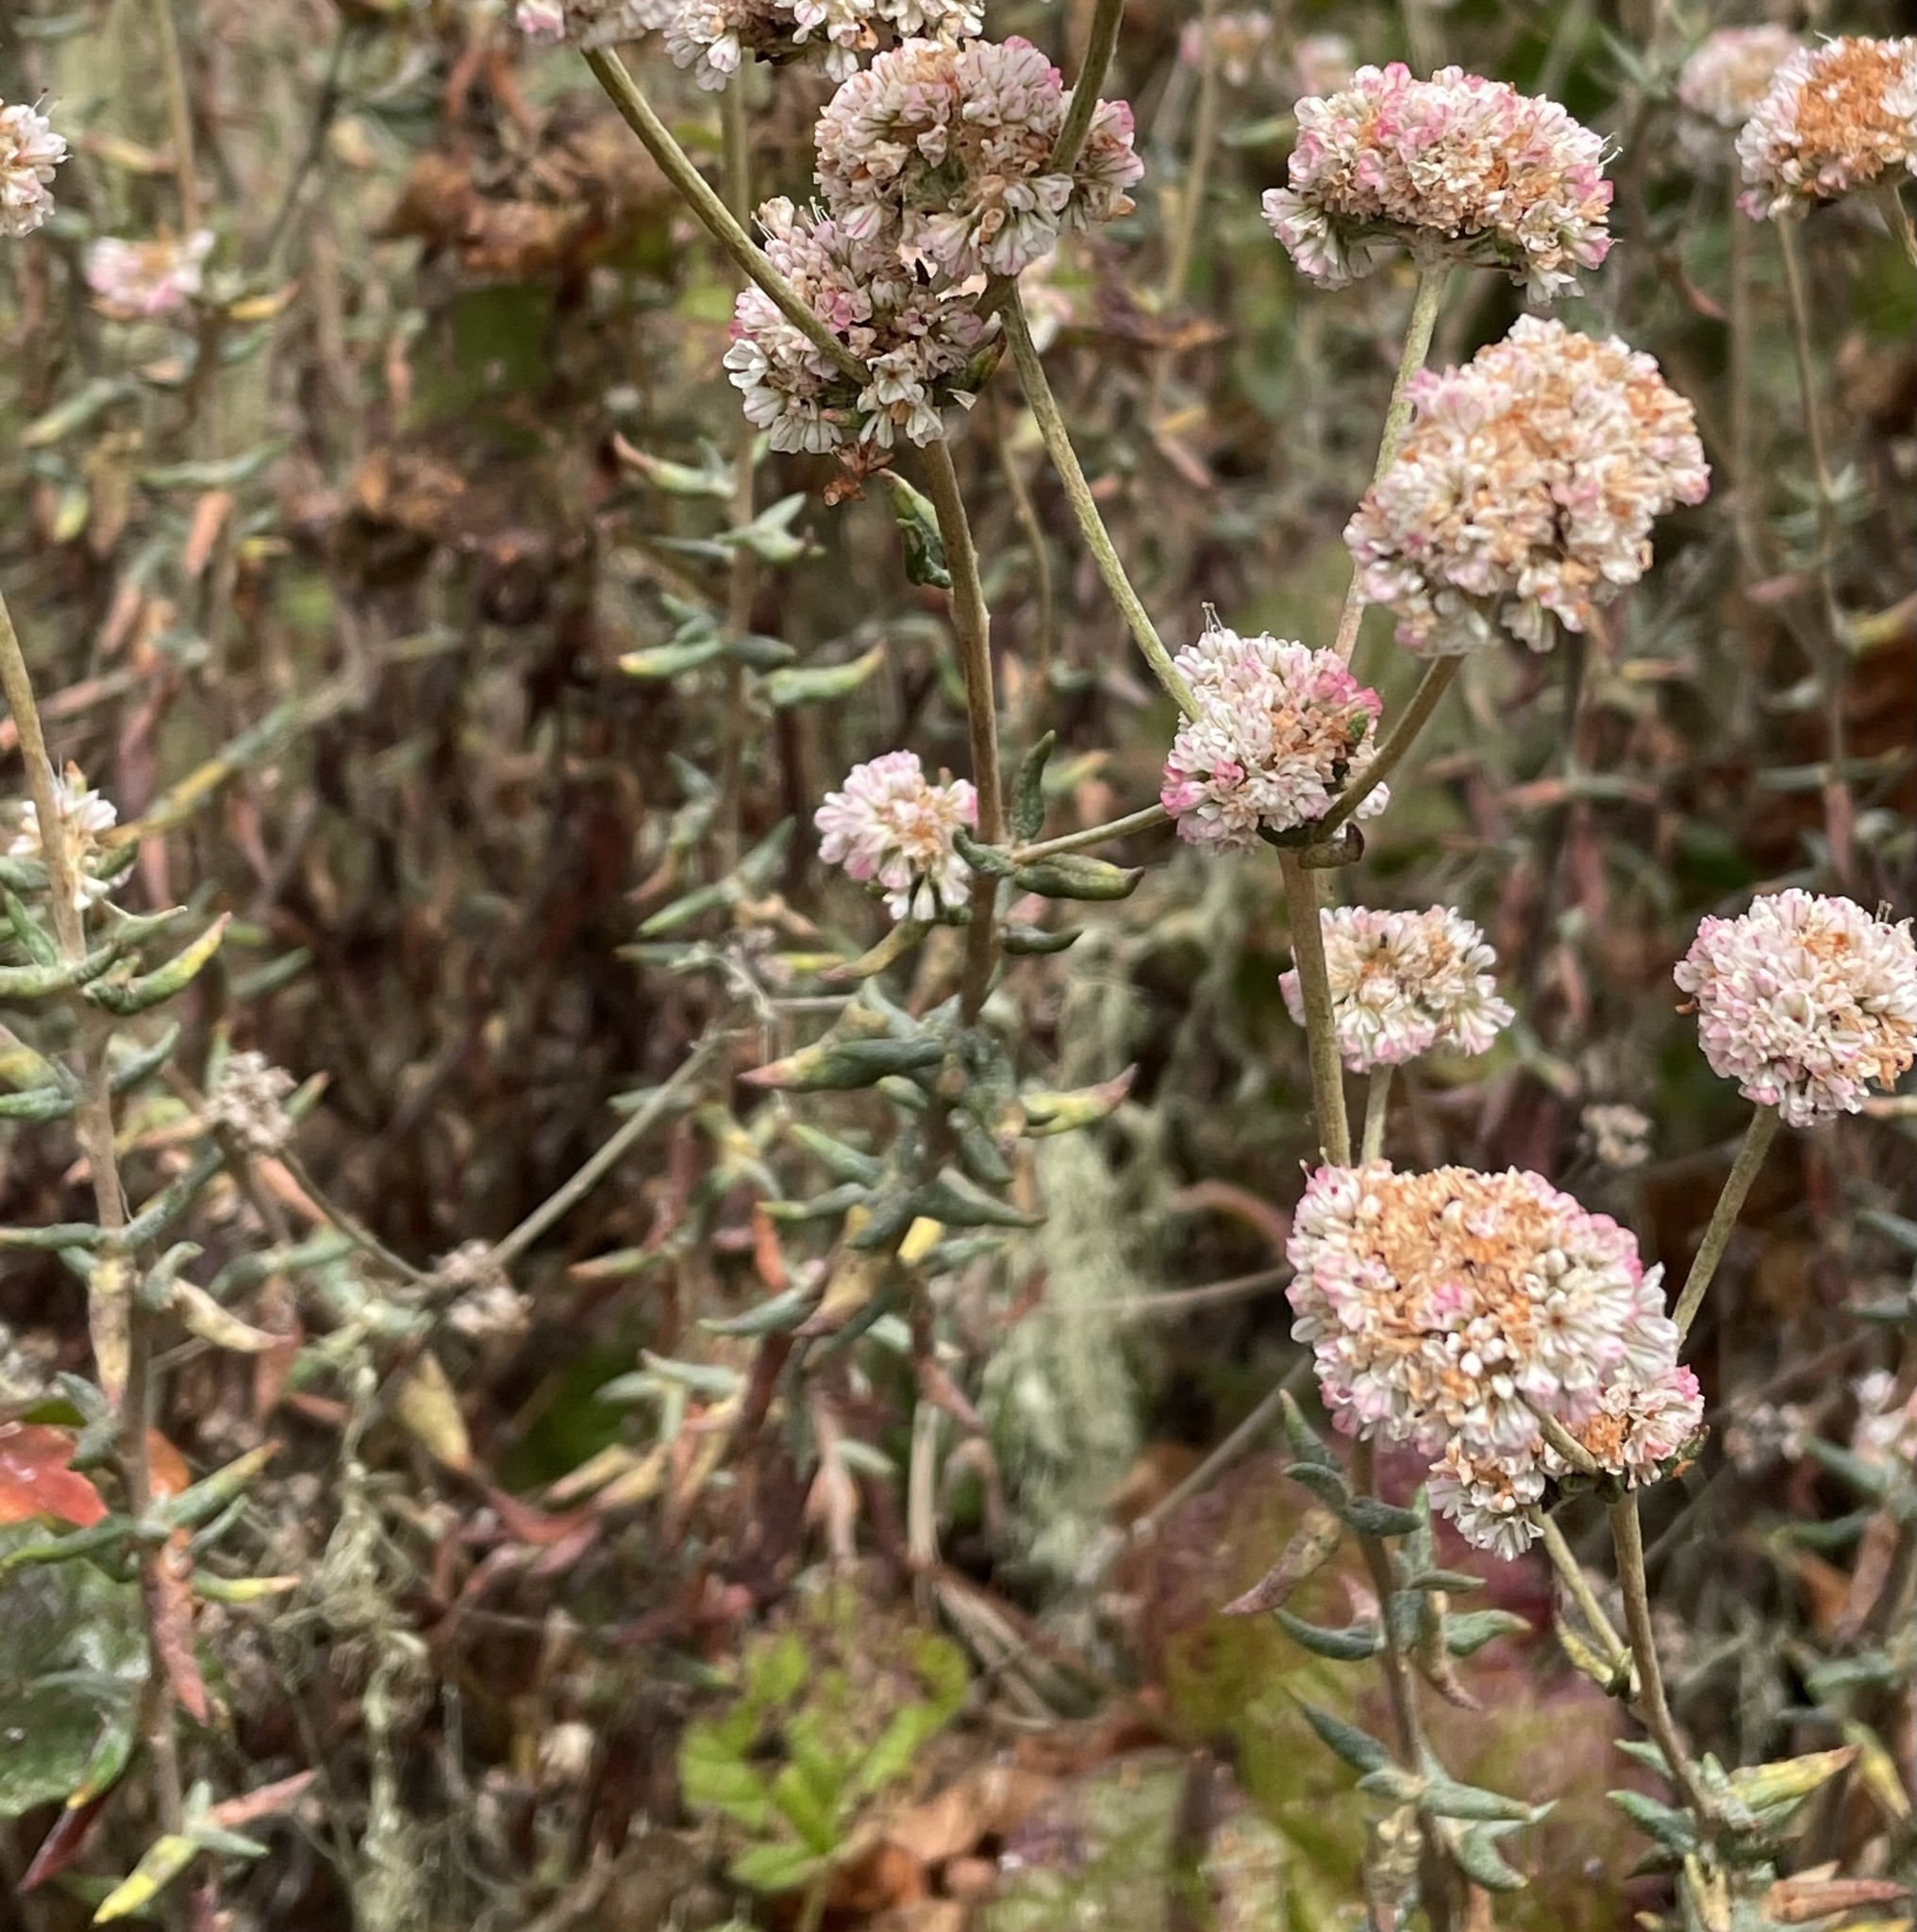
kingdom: Plantae
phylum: Tracheophyta
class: Magnoliopsida
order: Caryophyllales
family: Polygonaceae
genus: Eriogonum
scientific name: Eriogonum parvifolium
